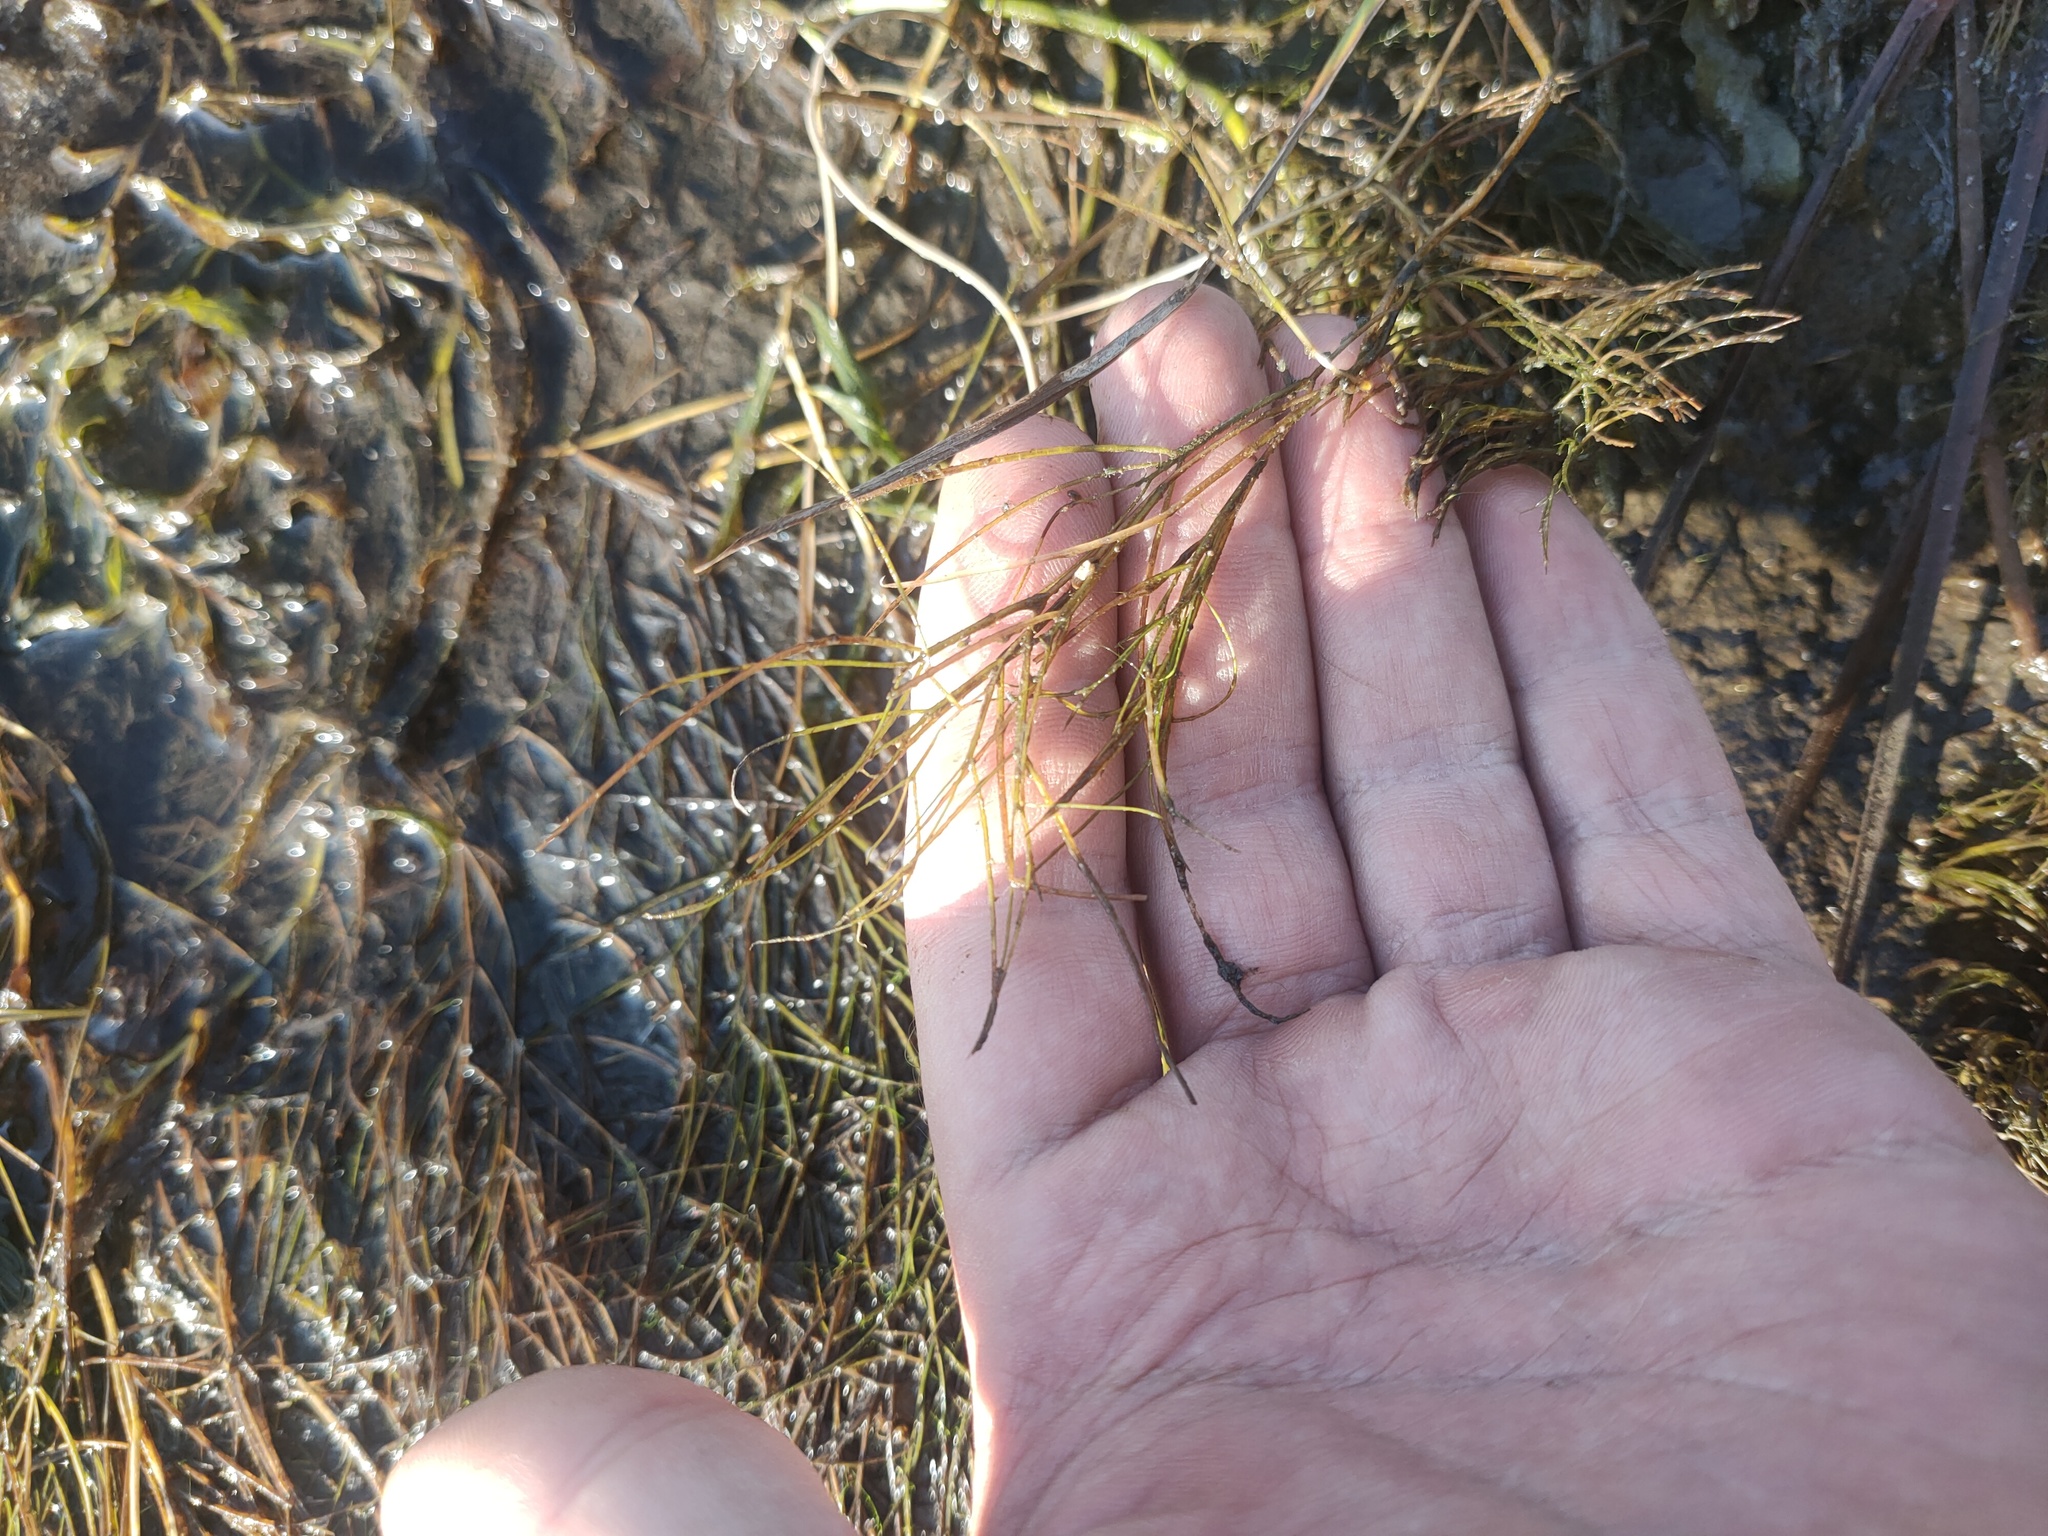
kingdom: Plantae
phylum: Tracheophyta
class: Liliopsida
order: Alismatales
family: Potamogetonaceae
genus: Stuckenia
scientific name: Stuckenia pectinata
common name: Sago pondweed
